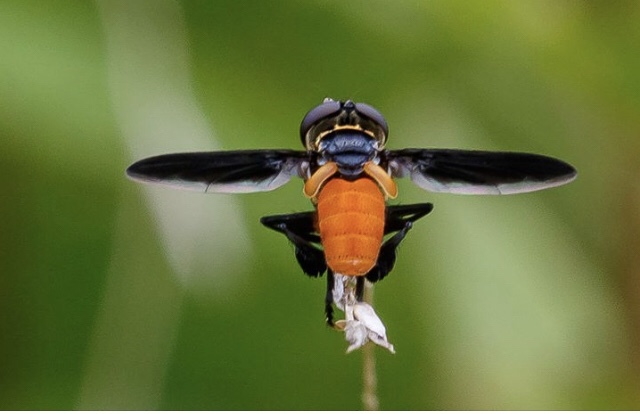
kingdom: Animalia
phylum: Arthropoda
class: Insecta
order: Diptera
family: Tachinidae
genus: Trichopoda
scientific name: Trichopoda pennipes
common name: Tachinid fly
